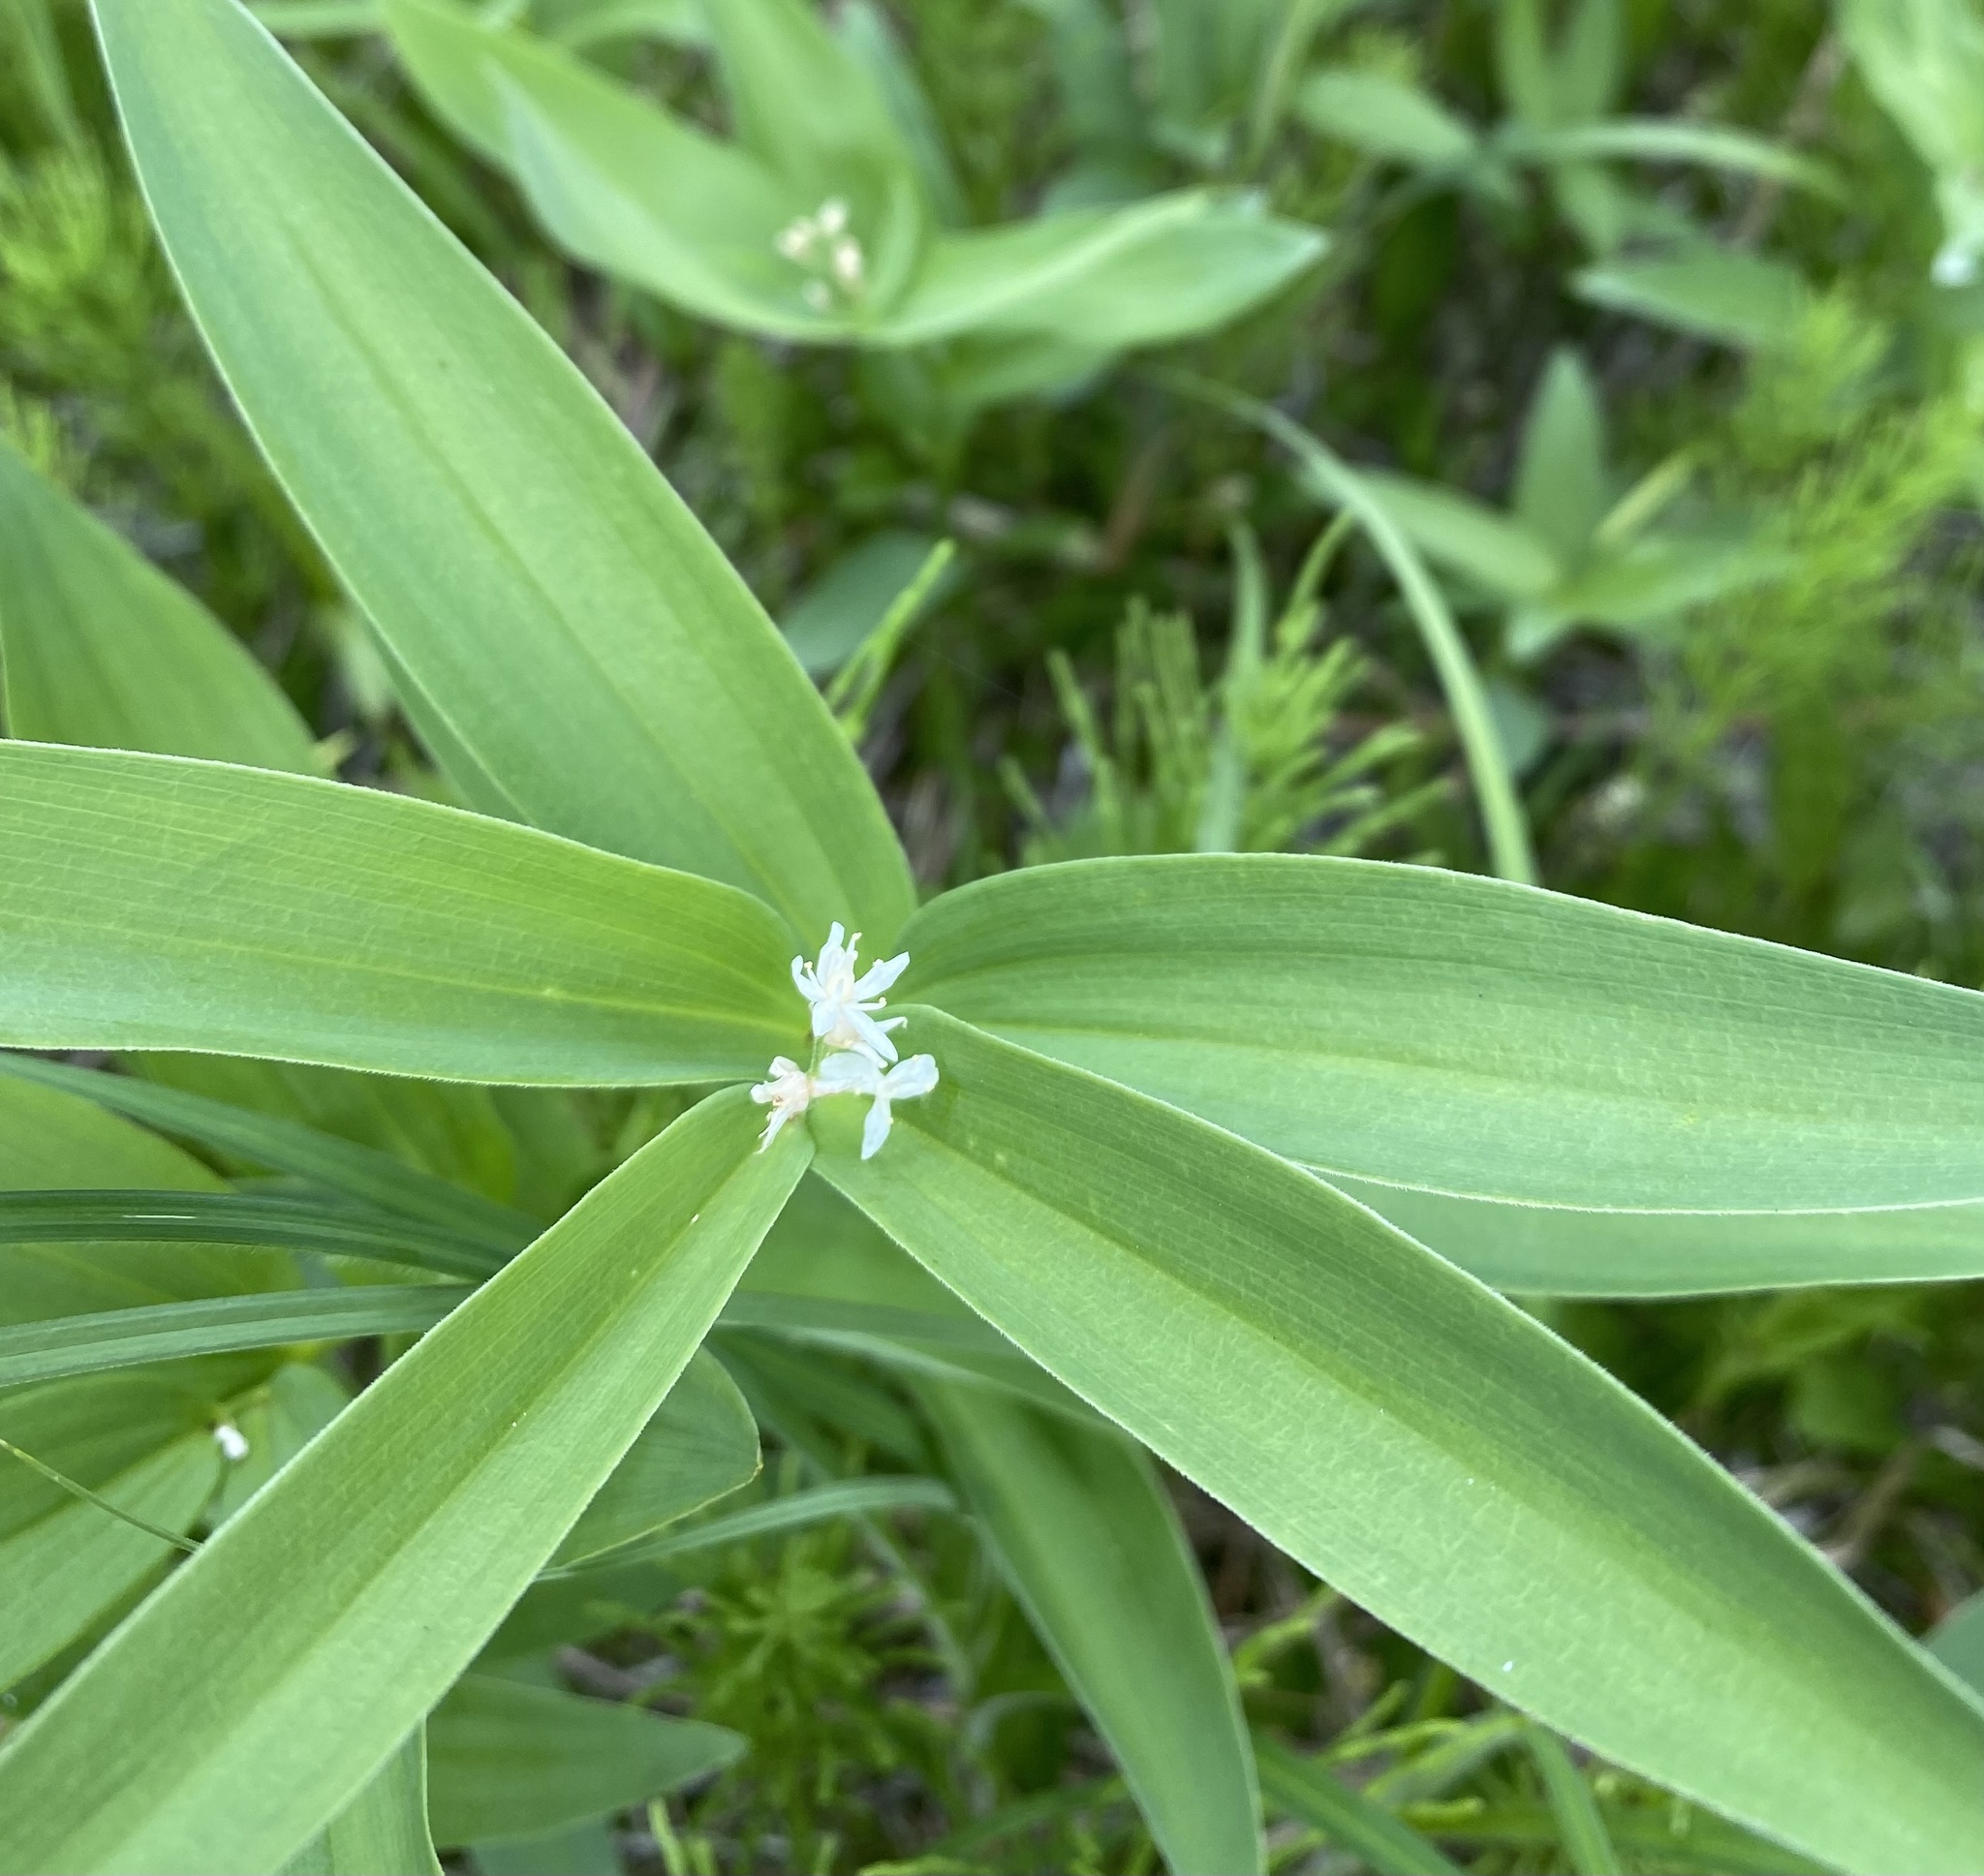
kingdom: Plantae
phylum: Tracheophyta
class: Liliopsida
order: Asparagales
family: Asparagaceae
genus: Maianthemum
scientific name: Maianthemum stellatum
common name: Little false solomon's seal
